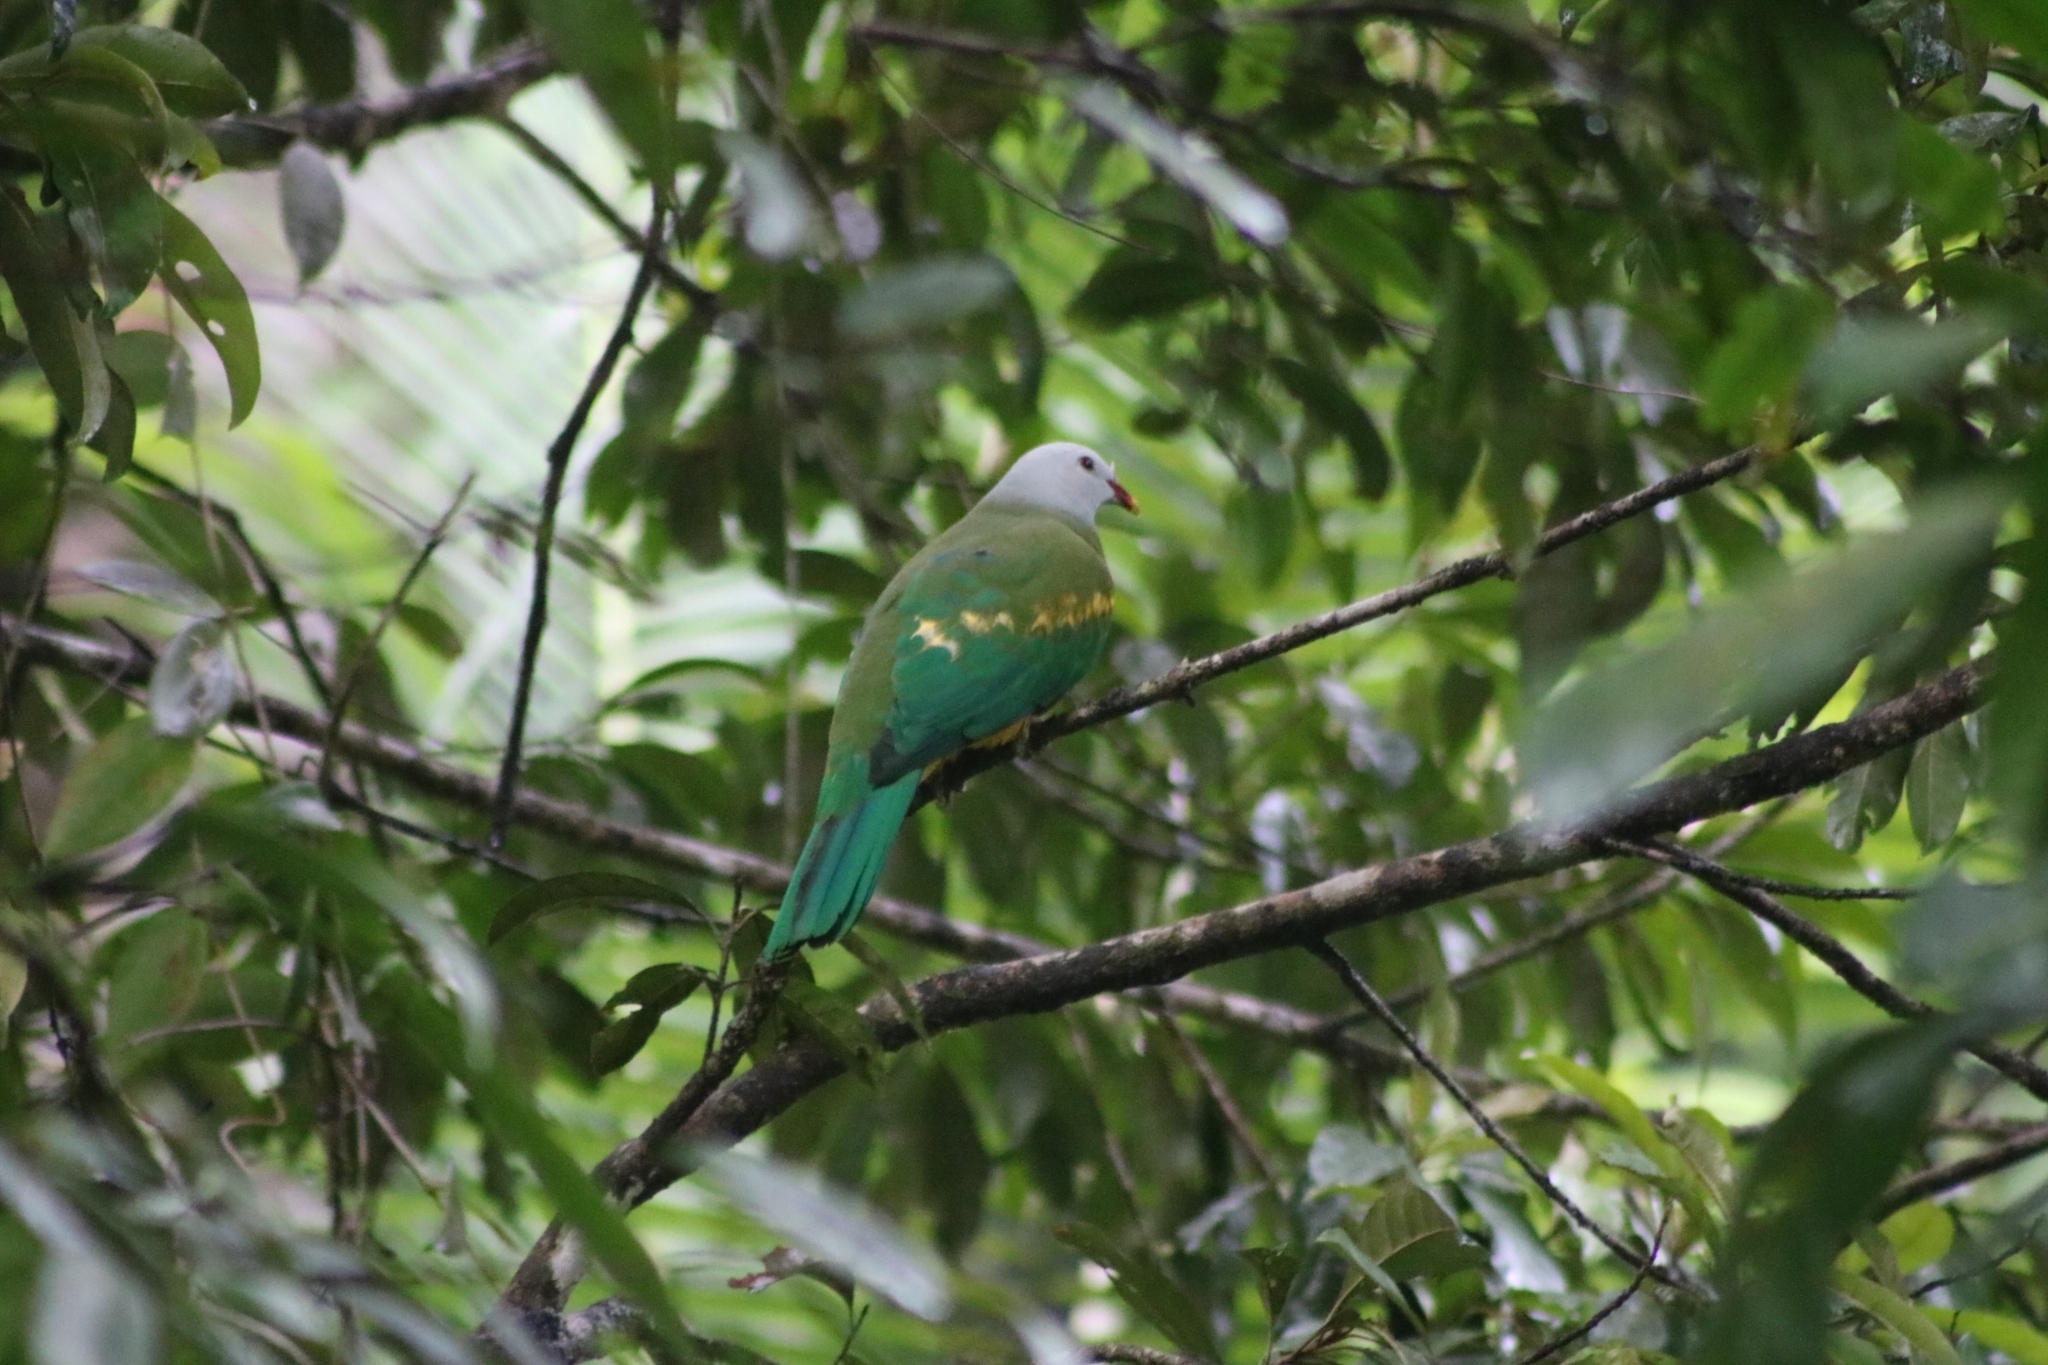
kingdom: Animalia
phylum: Chordata
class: Aves
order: Columbiformes
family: Columbidae
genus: Ptilinopus
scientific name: Ptilinopus magnificus
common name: Wompoo fruit dove
